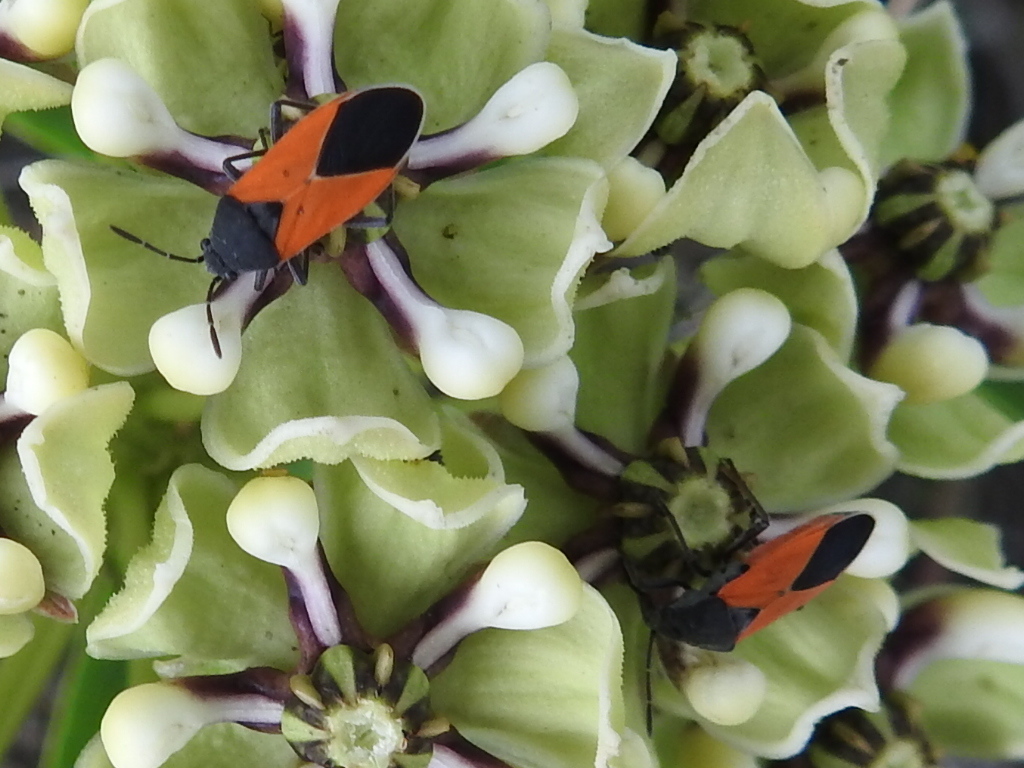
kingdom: Animalia
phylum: Arthropoda
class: Insecta
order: Hemiptera
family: Lygaeidae
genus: Melanopleurus
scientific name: Melanopleurus belfragei
